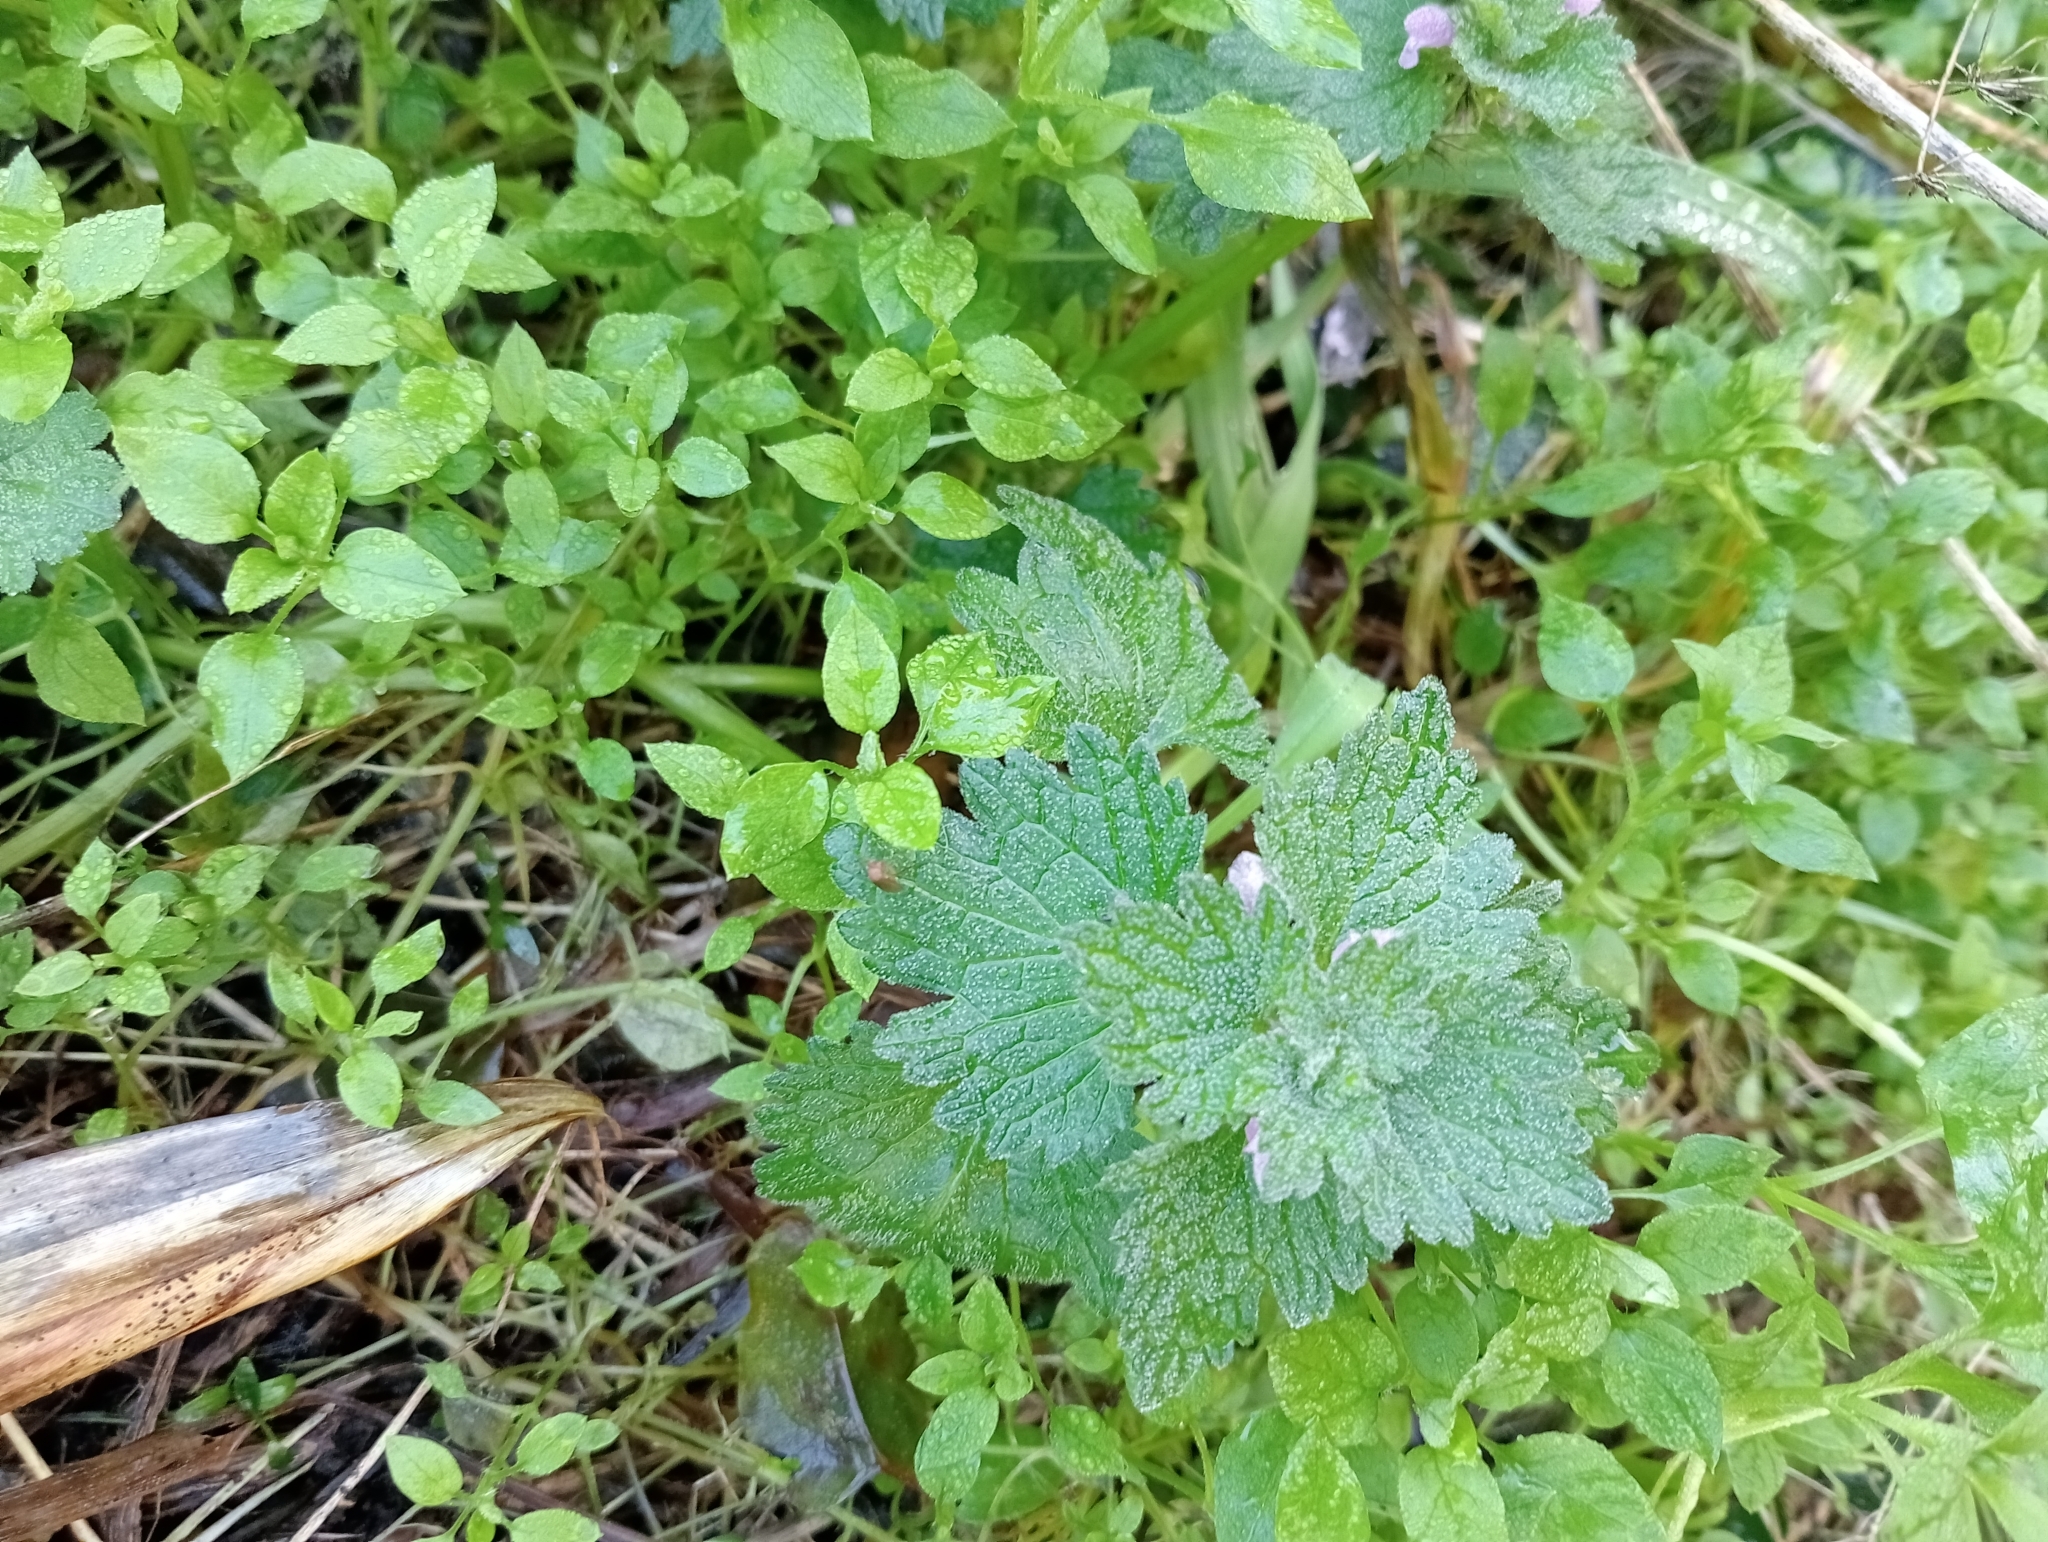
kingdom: Plantae
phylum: Tracheophyta
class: Magnoliopsida
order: Lamiales
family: Lamiaceae
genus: Lamium
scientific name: Lamium hybridum
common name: Cut-leaved dead-nettle
